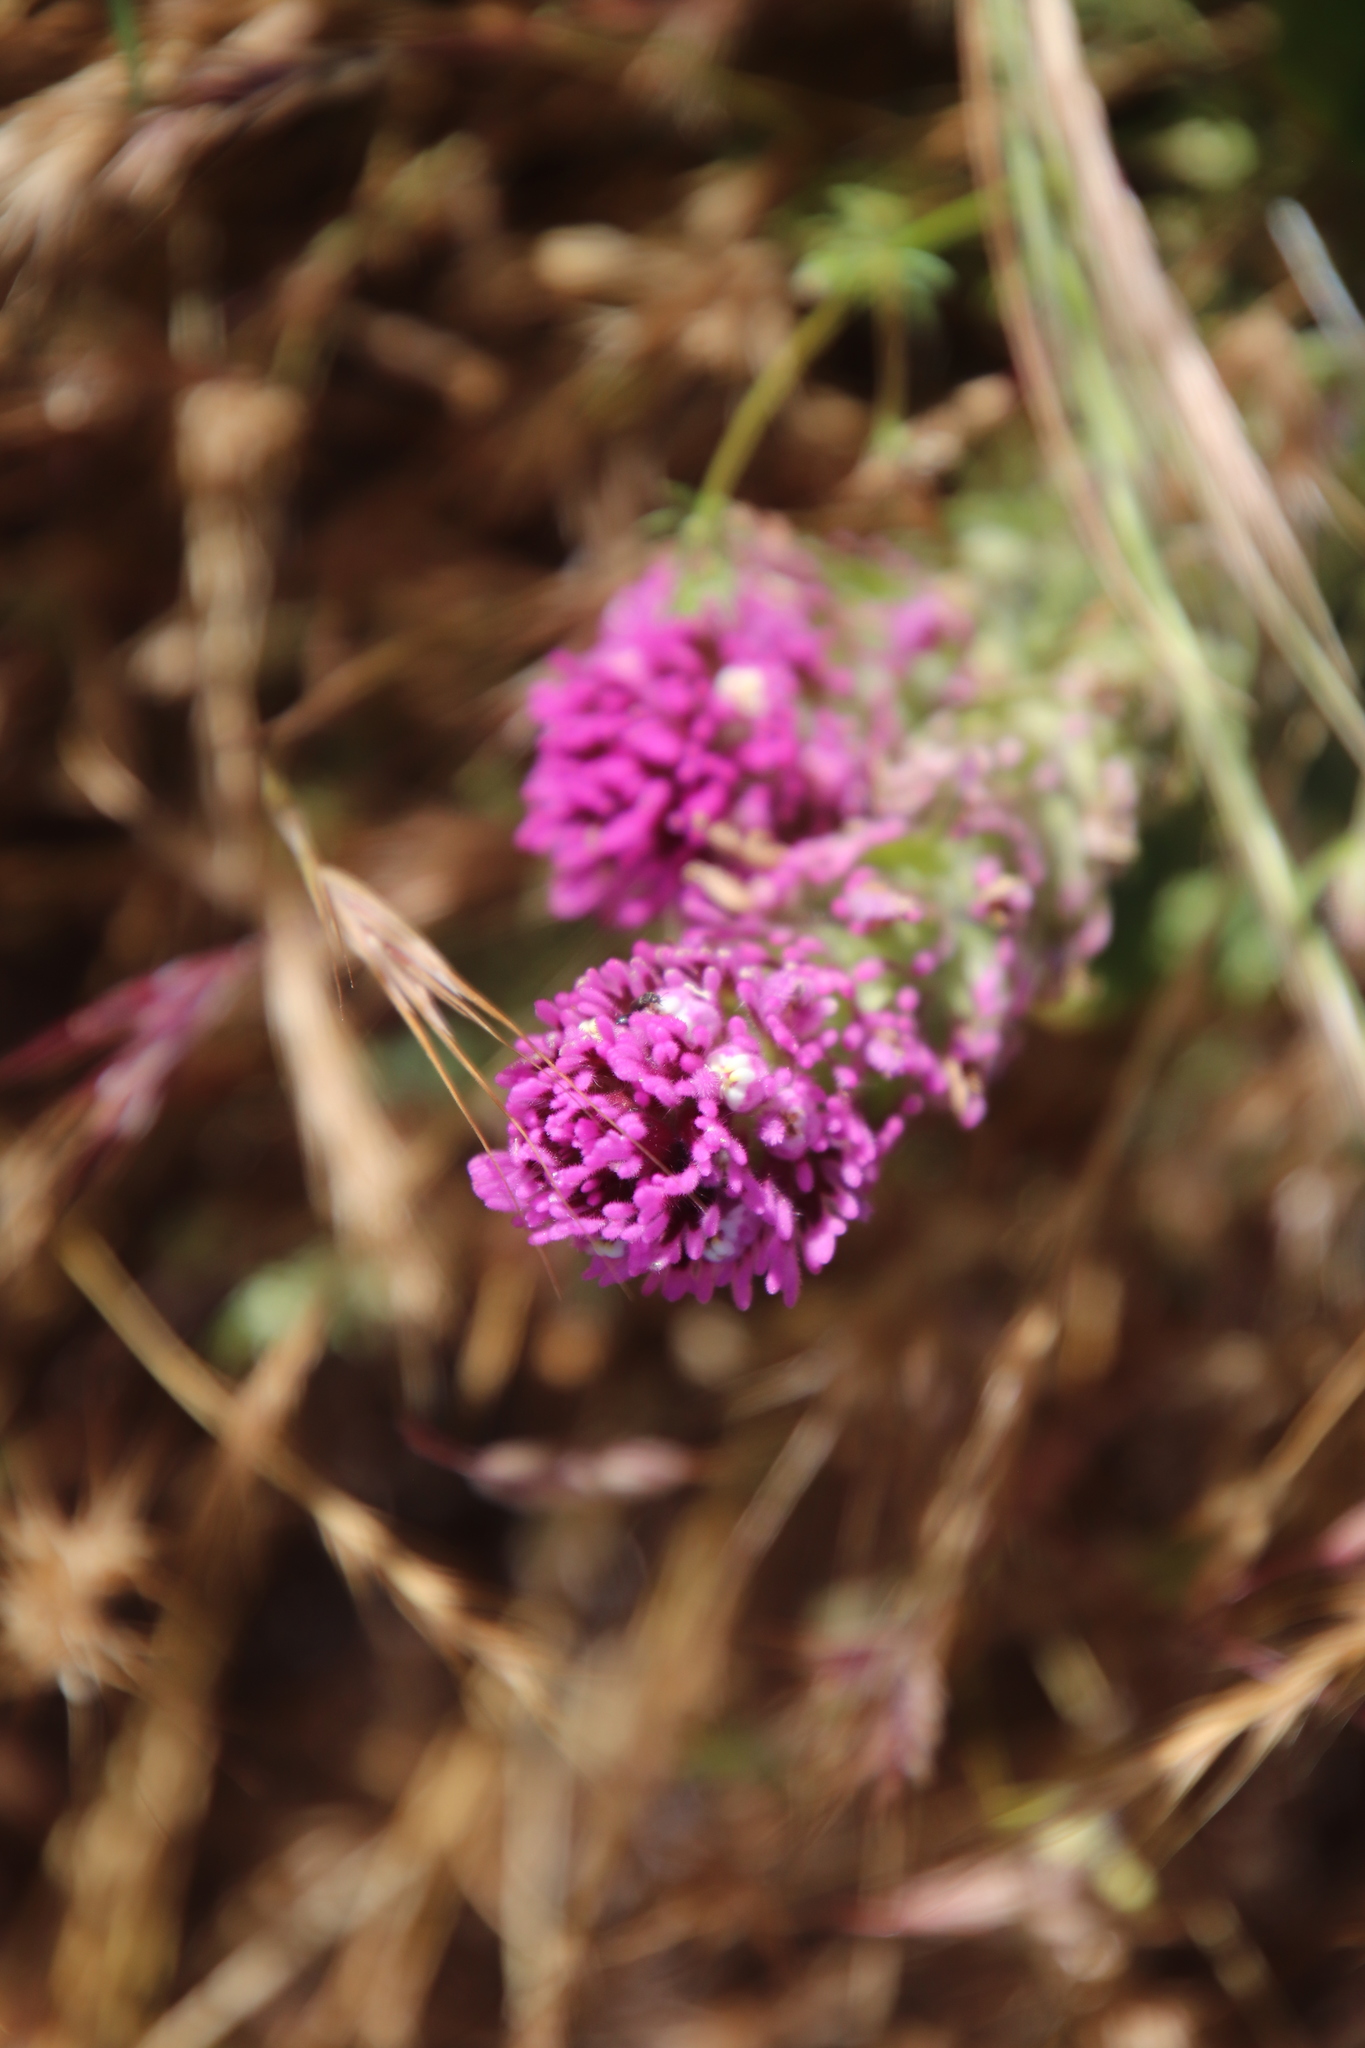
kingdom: Plantae
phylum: Tracheophyta
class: Magnoliopsida
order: Lamiales
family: Orobanchaceae
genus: Castilleja
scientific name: Castilleja exserta
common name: Purple owl-clover
